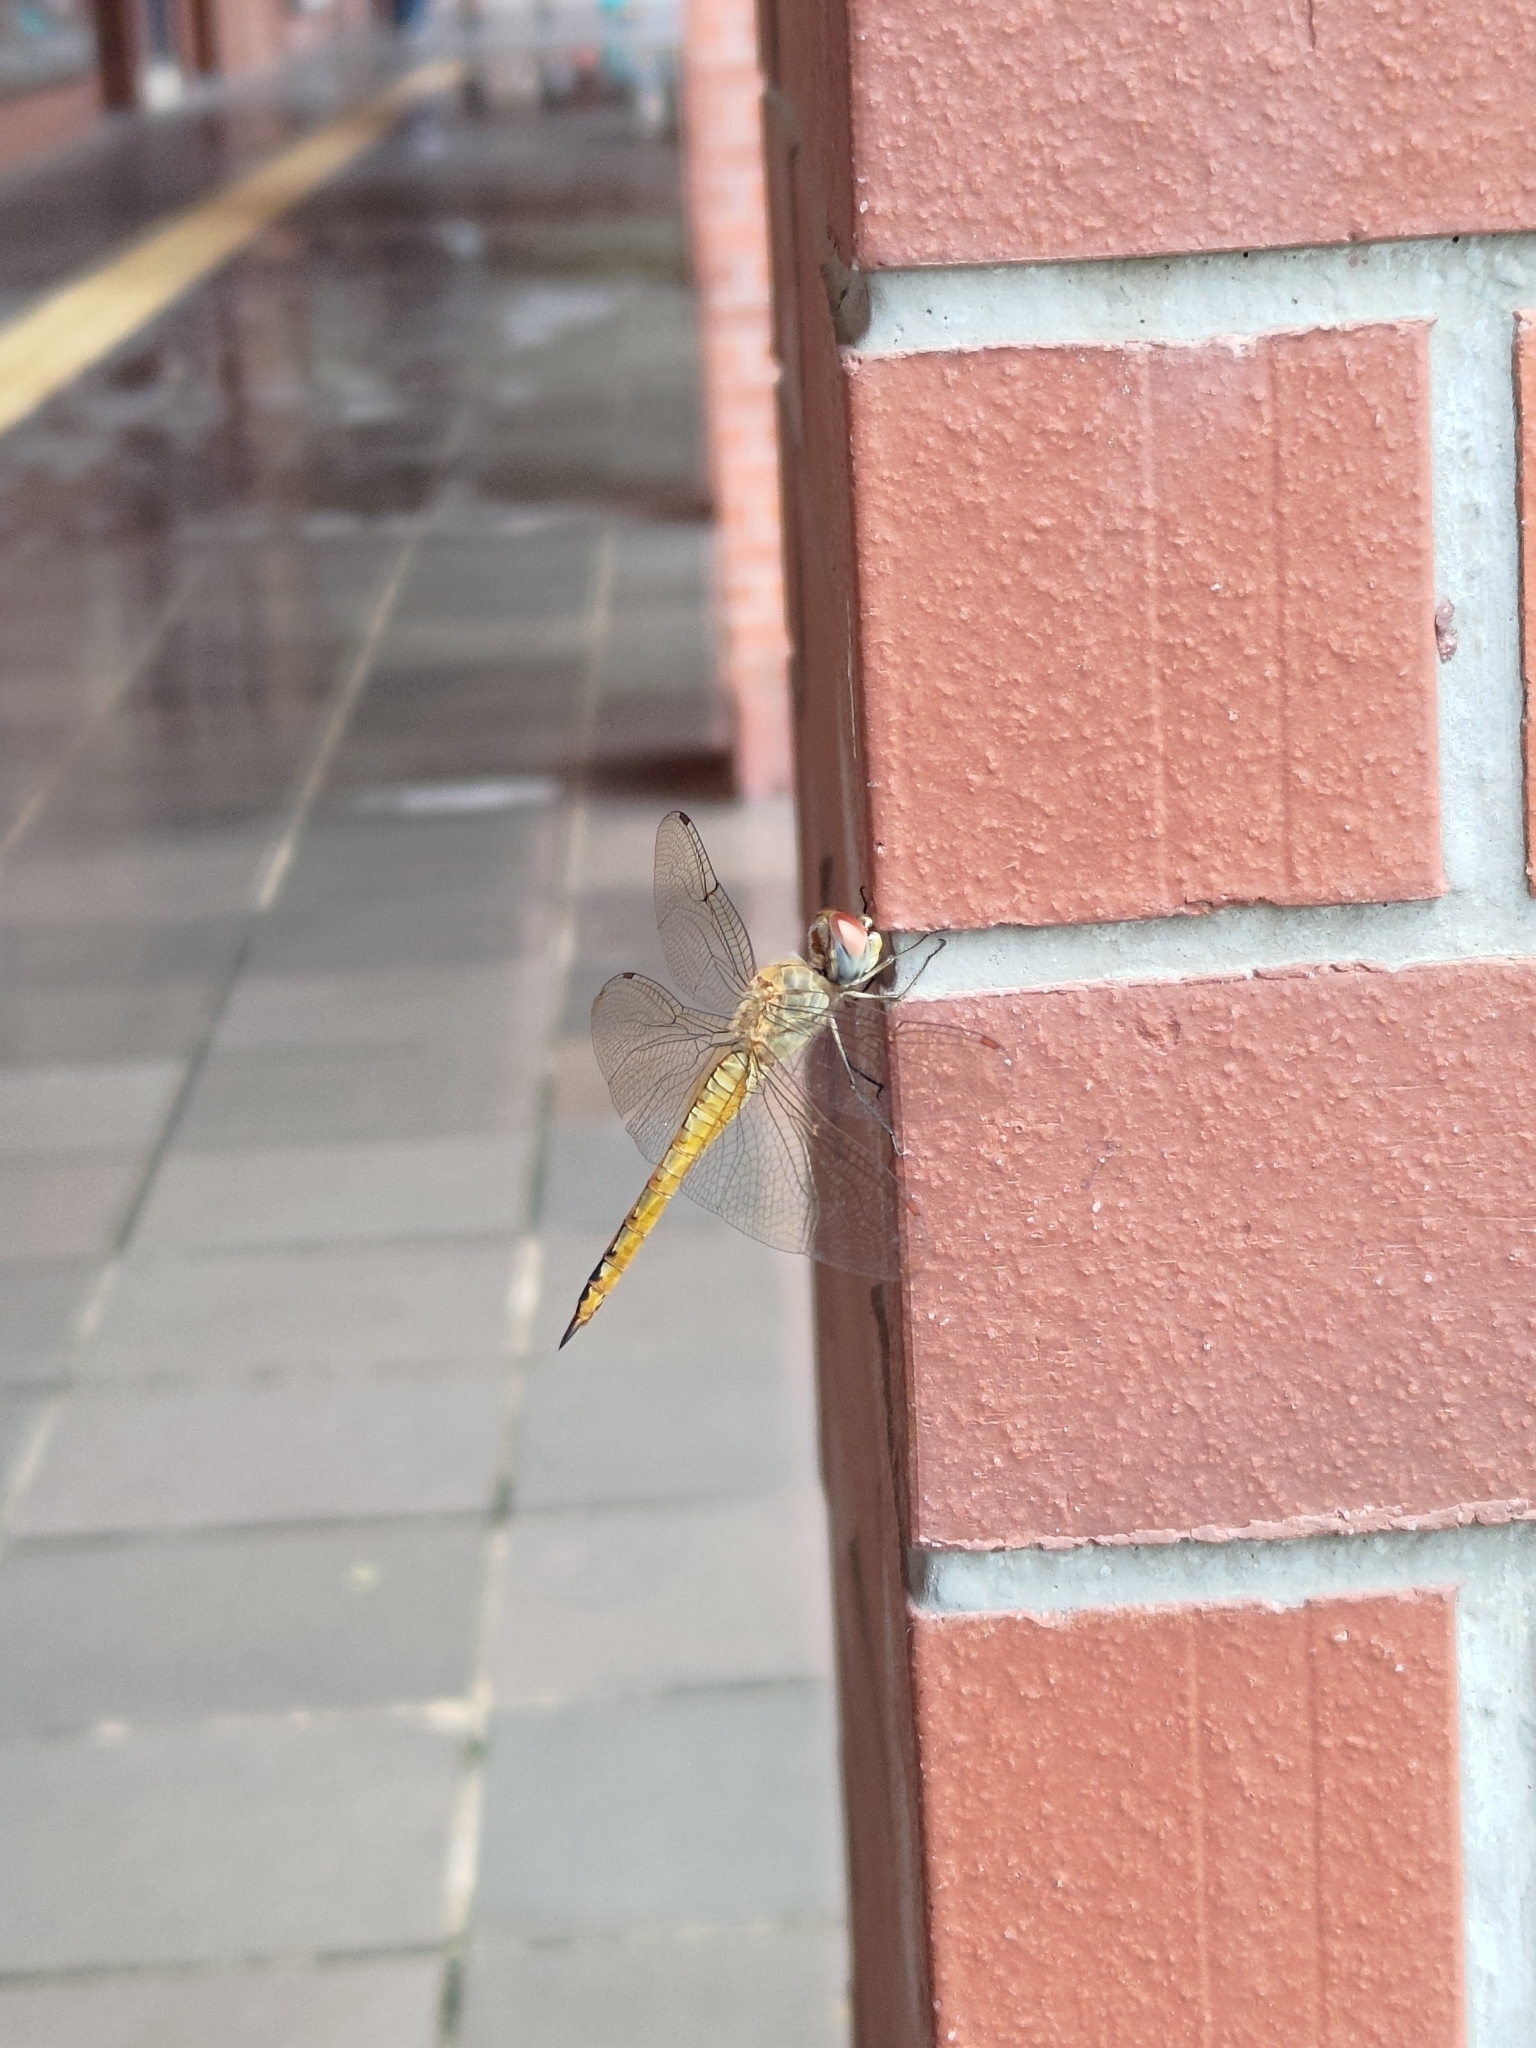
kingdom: Animalia
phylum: Arthropoda
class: Insecta
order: Odonata
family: Libellulidae
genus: Pantala
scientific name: Pantala flavescens
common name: Wandering glider
